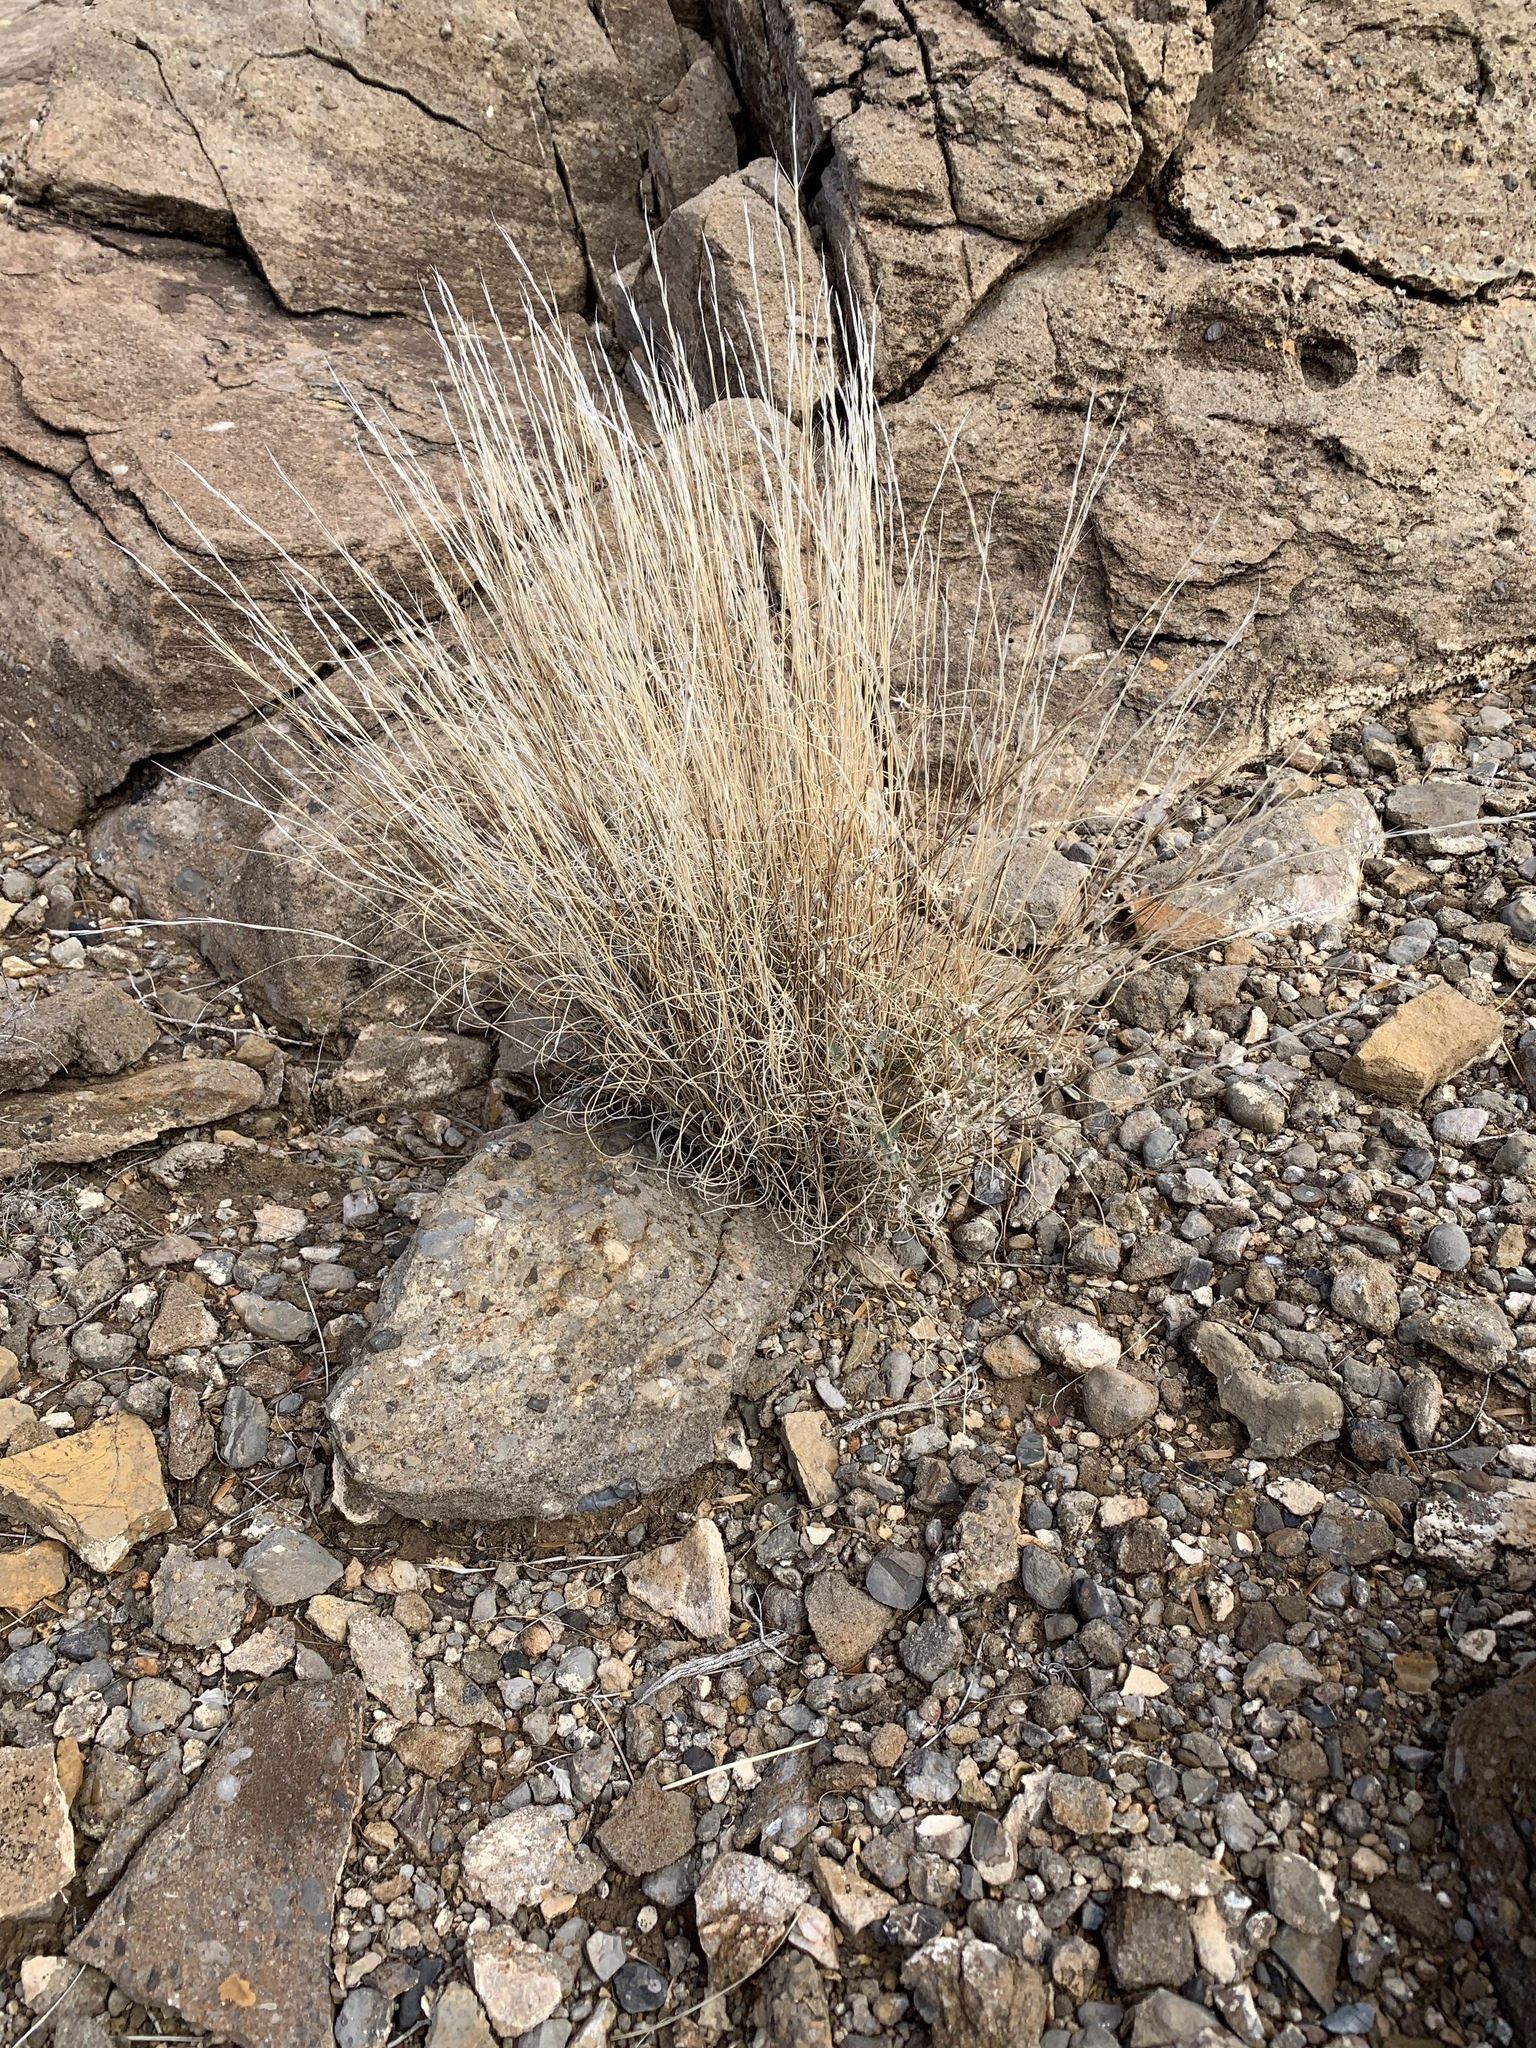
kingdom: Plantae
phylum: Tracheophyta
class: Liliopsida
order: Poales
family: Poaceae
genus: Aristida
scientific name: Aristida purpurea
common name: Purple threeawn
